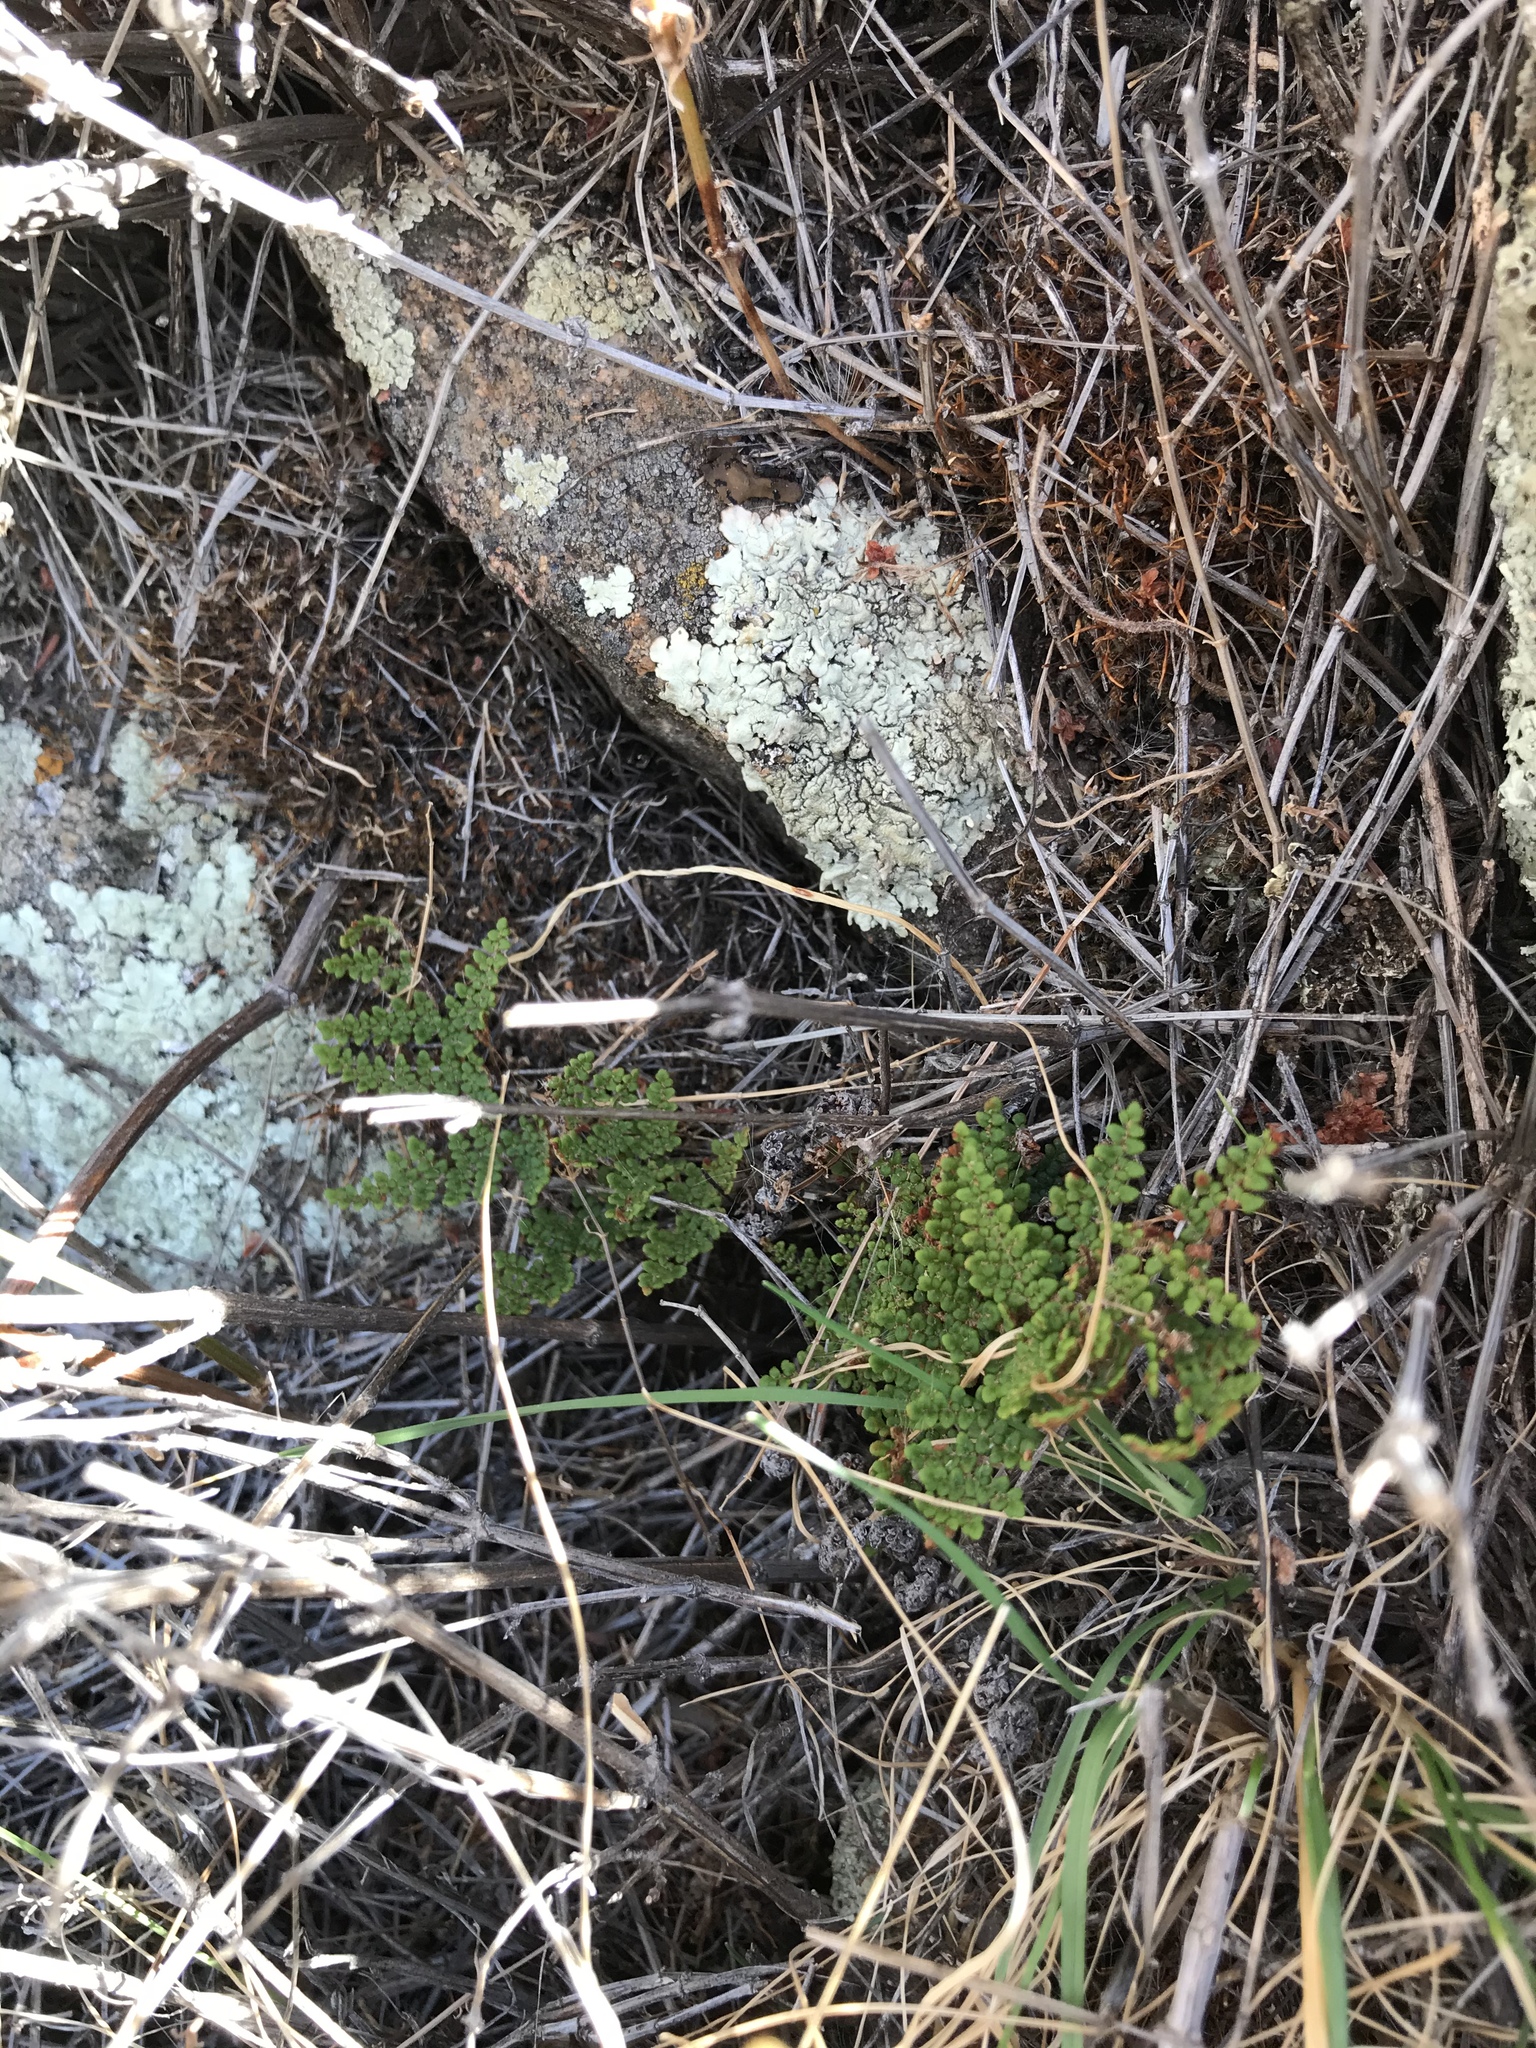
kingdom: Plantae
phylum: Tracheophyta
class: Polypodiopsida
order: Polypodiales
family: Pteridaceae
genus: Myriopteris
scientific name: Myriopteris clevelandii
